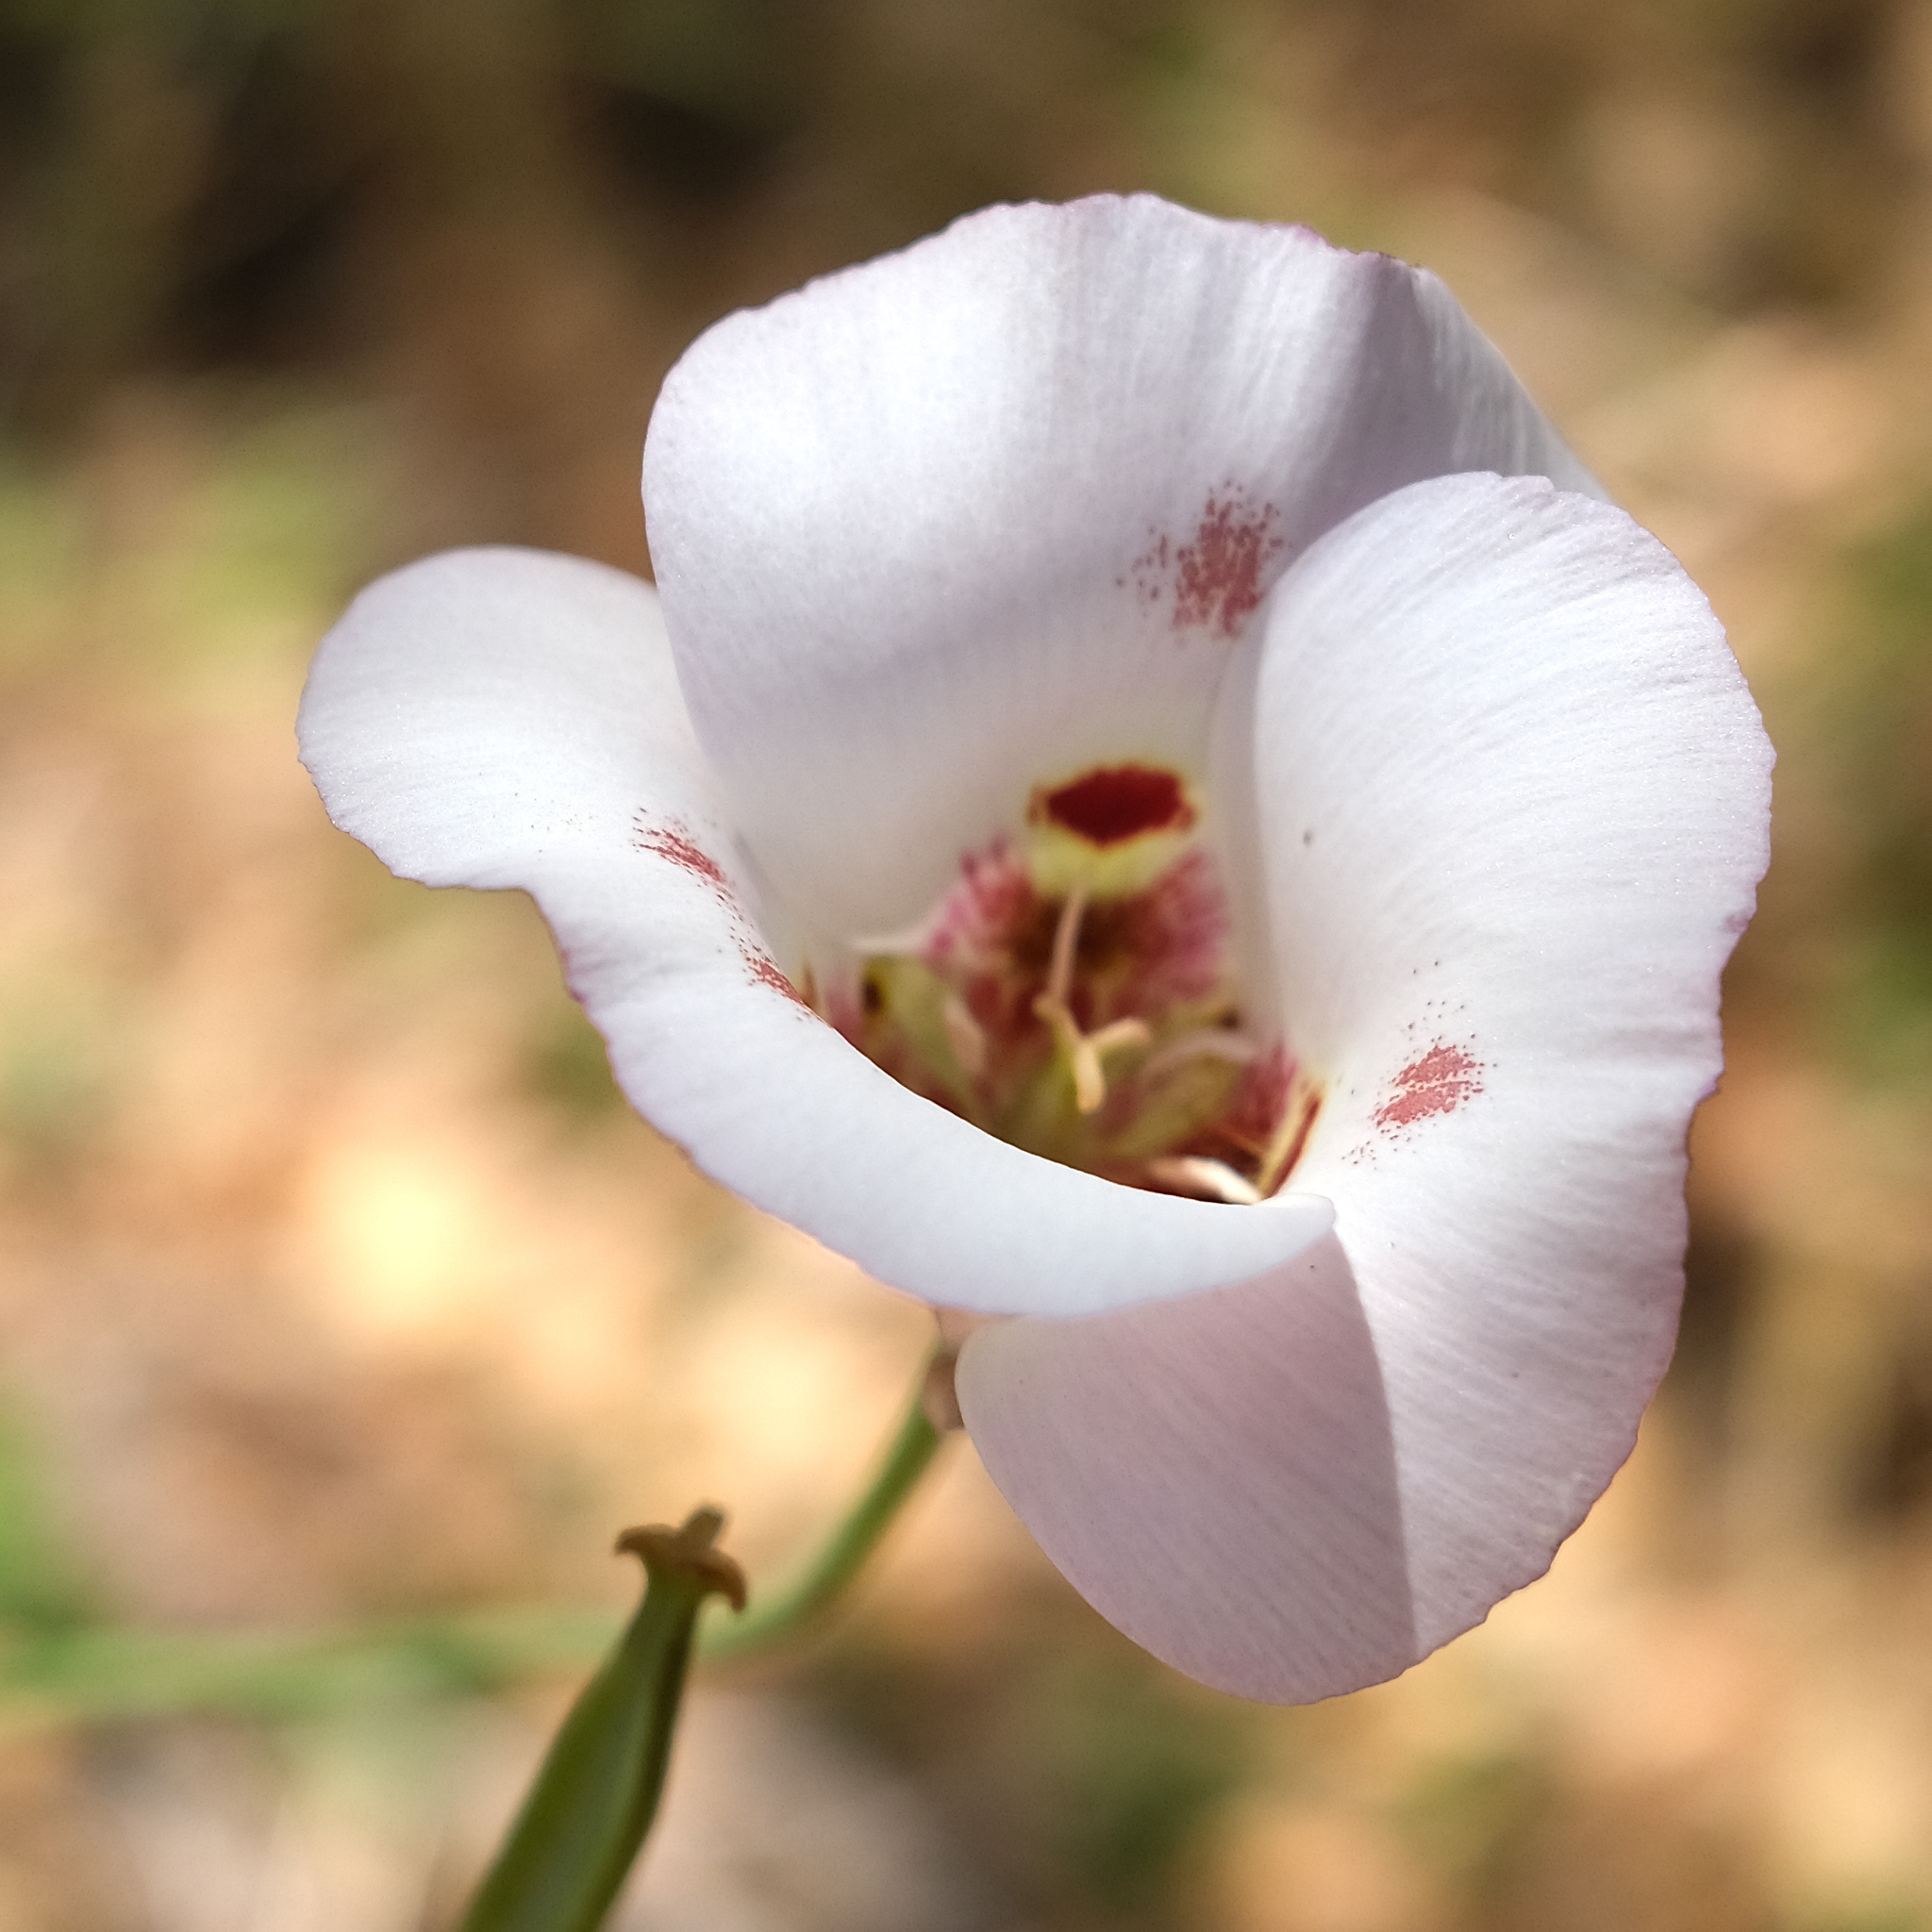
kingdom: Plantae
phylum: Tracheophyta
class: Liliopsida
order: Liliales
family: Liliaceae
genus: Calochortus
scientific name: Calochortus venustus
